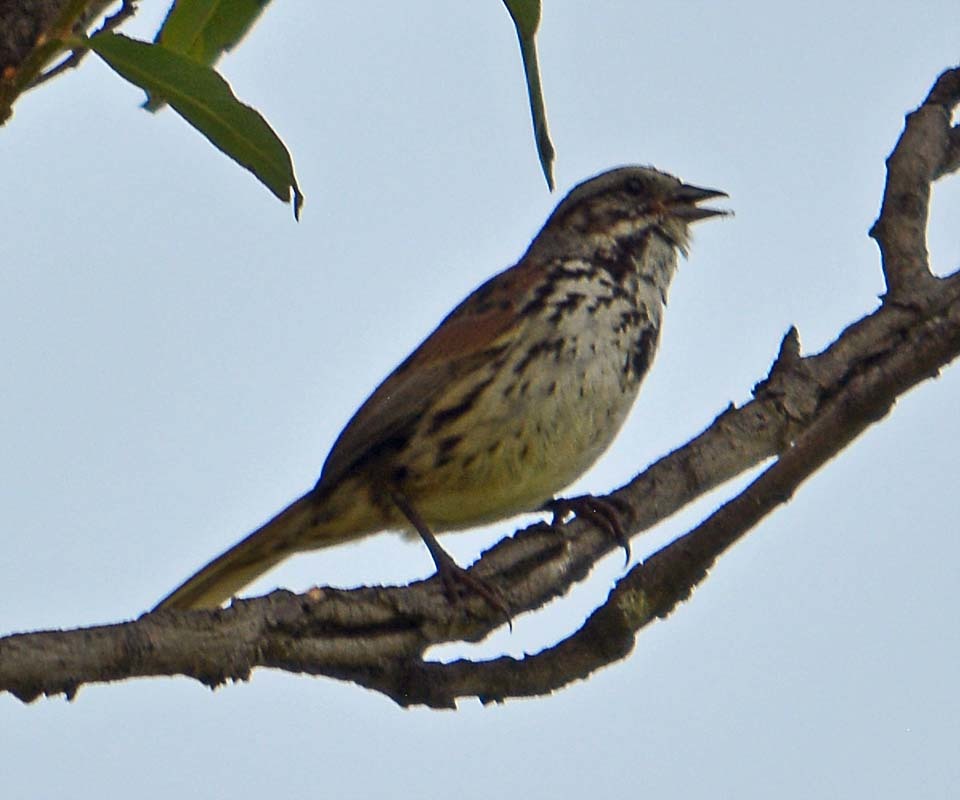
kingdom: Animalia
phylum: Chordata
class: Aves
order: Passeriformes
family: Passerellidae
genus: Melospiza
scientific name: Melospiza melodia
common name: Song sparrow
